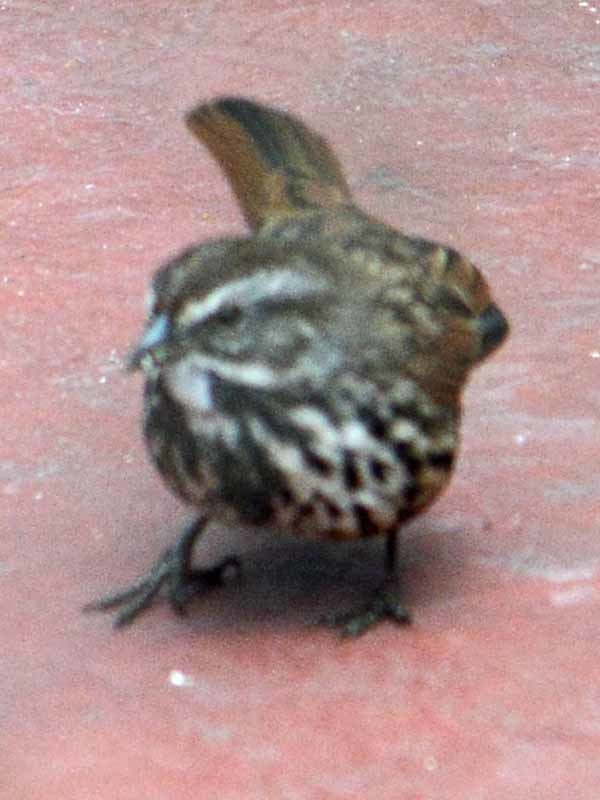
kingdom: Animalia
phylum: Chordata
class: Aves
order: Passeriformes
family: Passerellidae
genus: Melospiza
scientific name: Melospiza melodia
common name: Song sparrow
